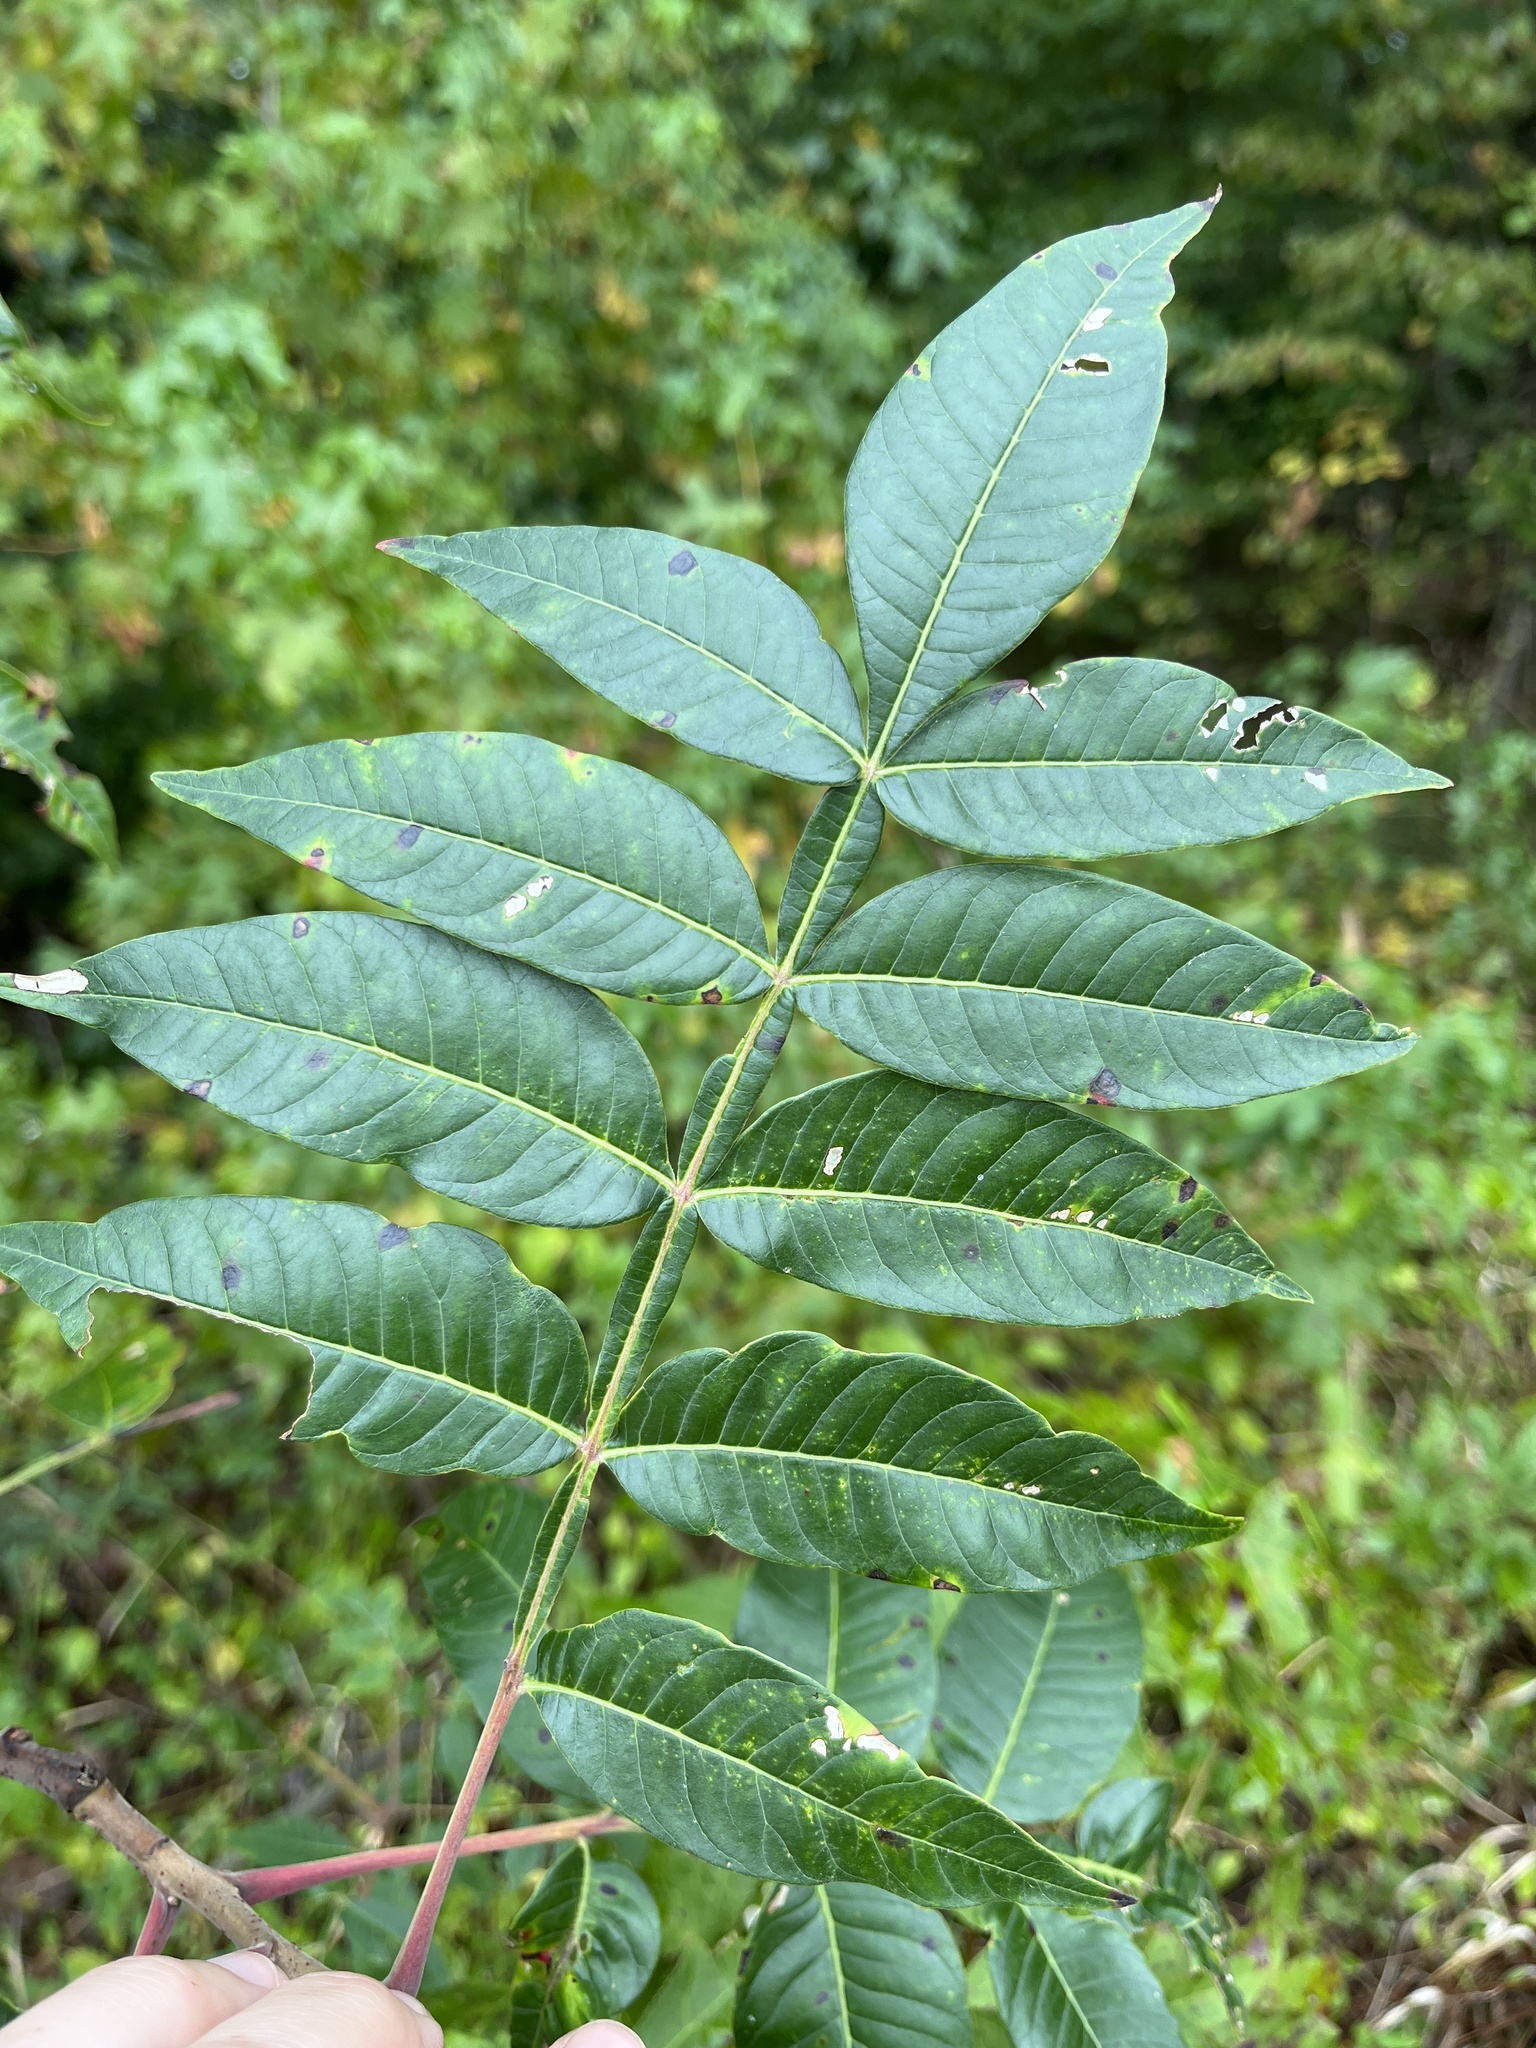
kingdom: Plantae
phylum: Tracheophyta
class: Magnoliopsida
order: Sapindales
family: Anacardiaceae
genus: Rhus
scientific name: Rhus copallina
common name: Shining sumac
